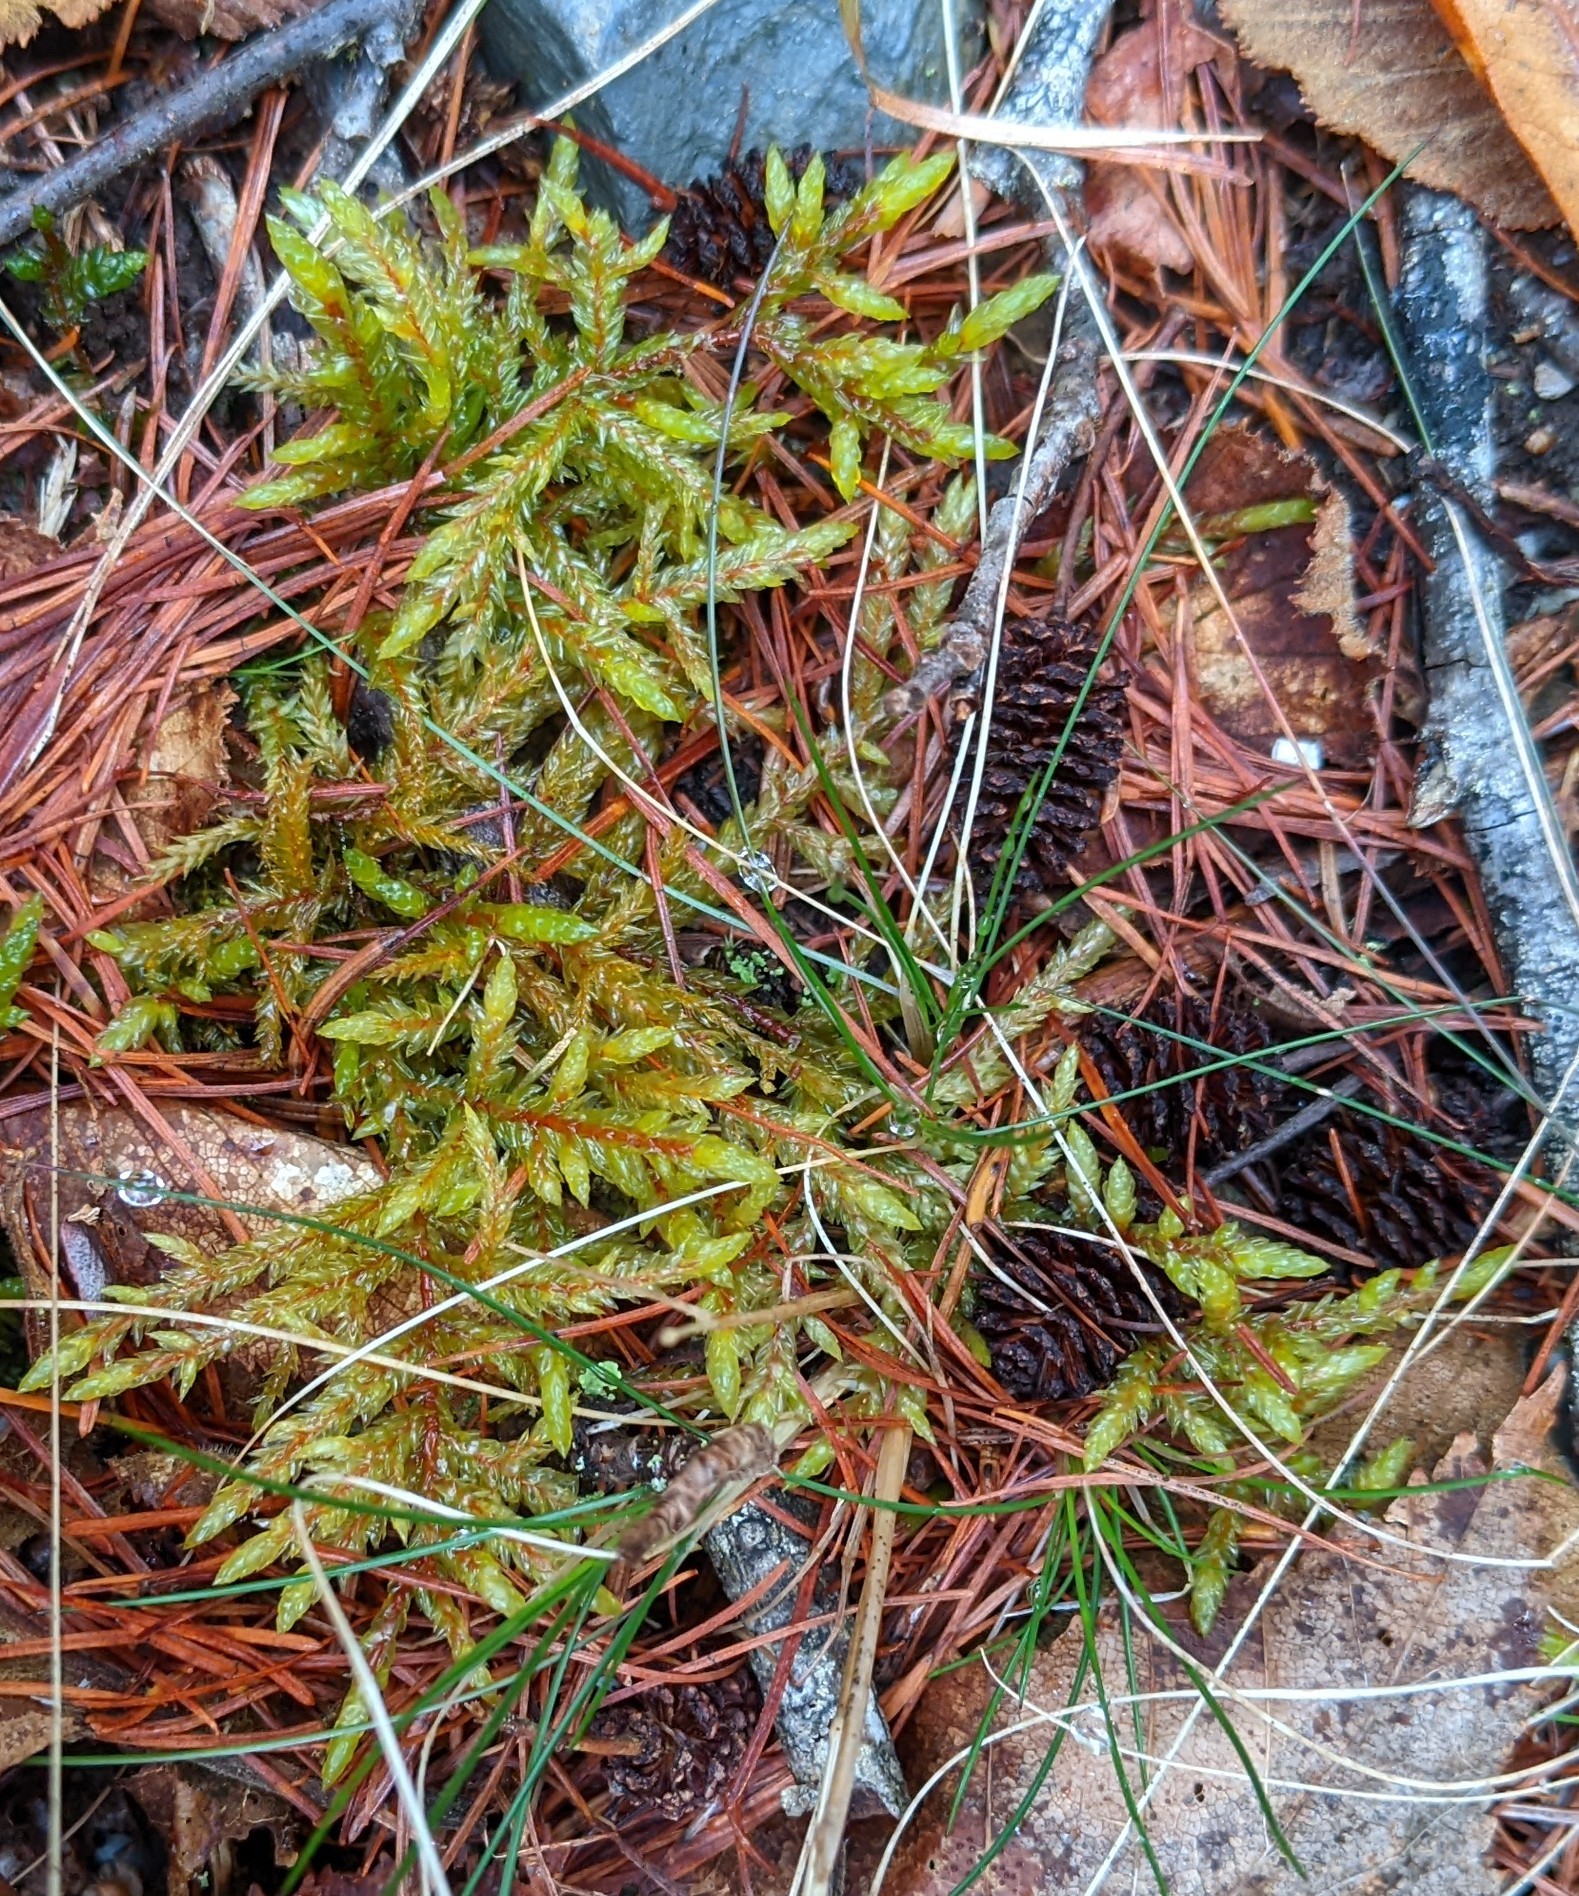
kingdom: Plantae
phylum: Bryophyta
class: Bryopsida
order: Hypnales
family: Hylocomiaceae
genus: Pleurozium
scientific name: Pleurozium schreberi
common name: Red-stemmed feather moss
